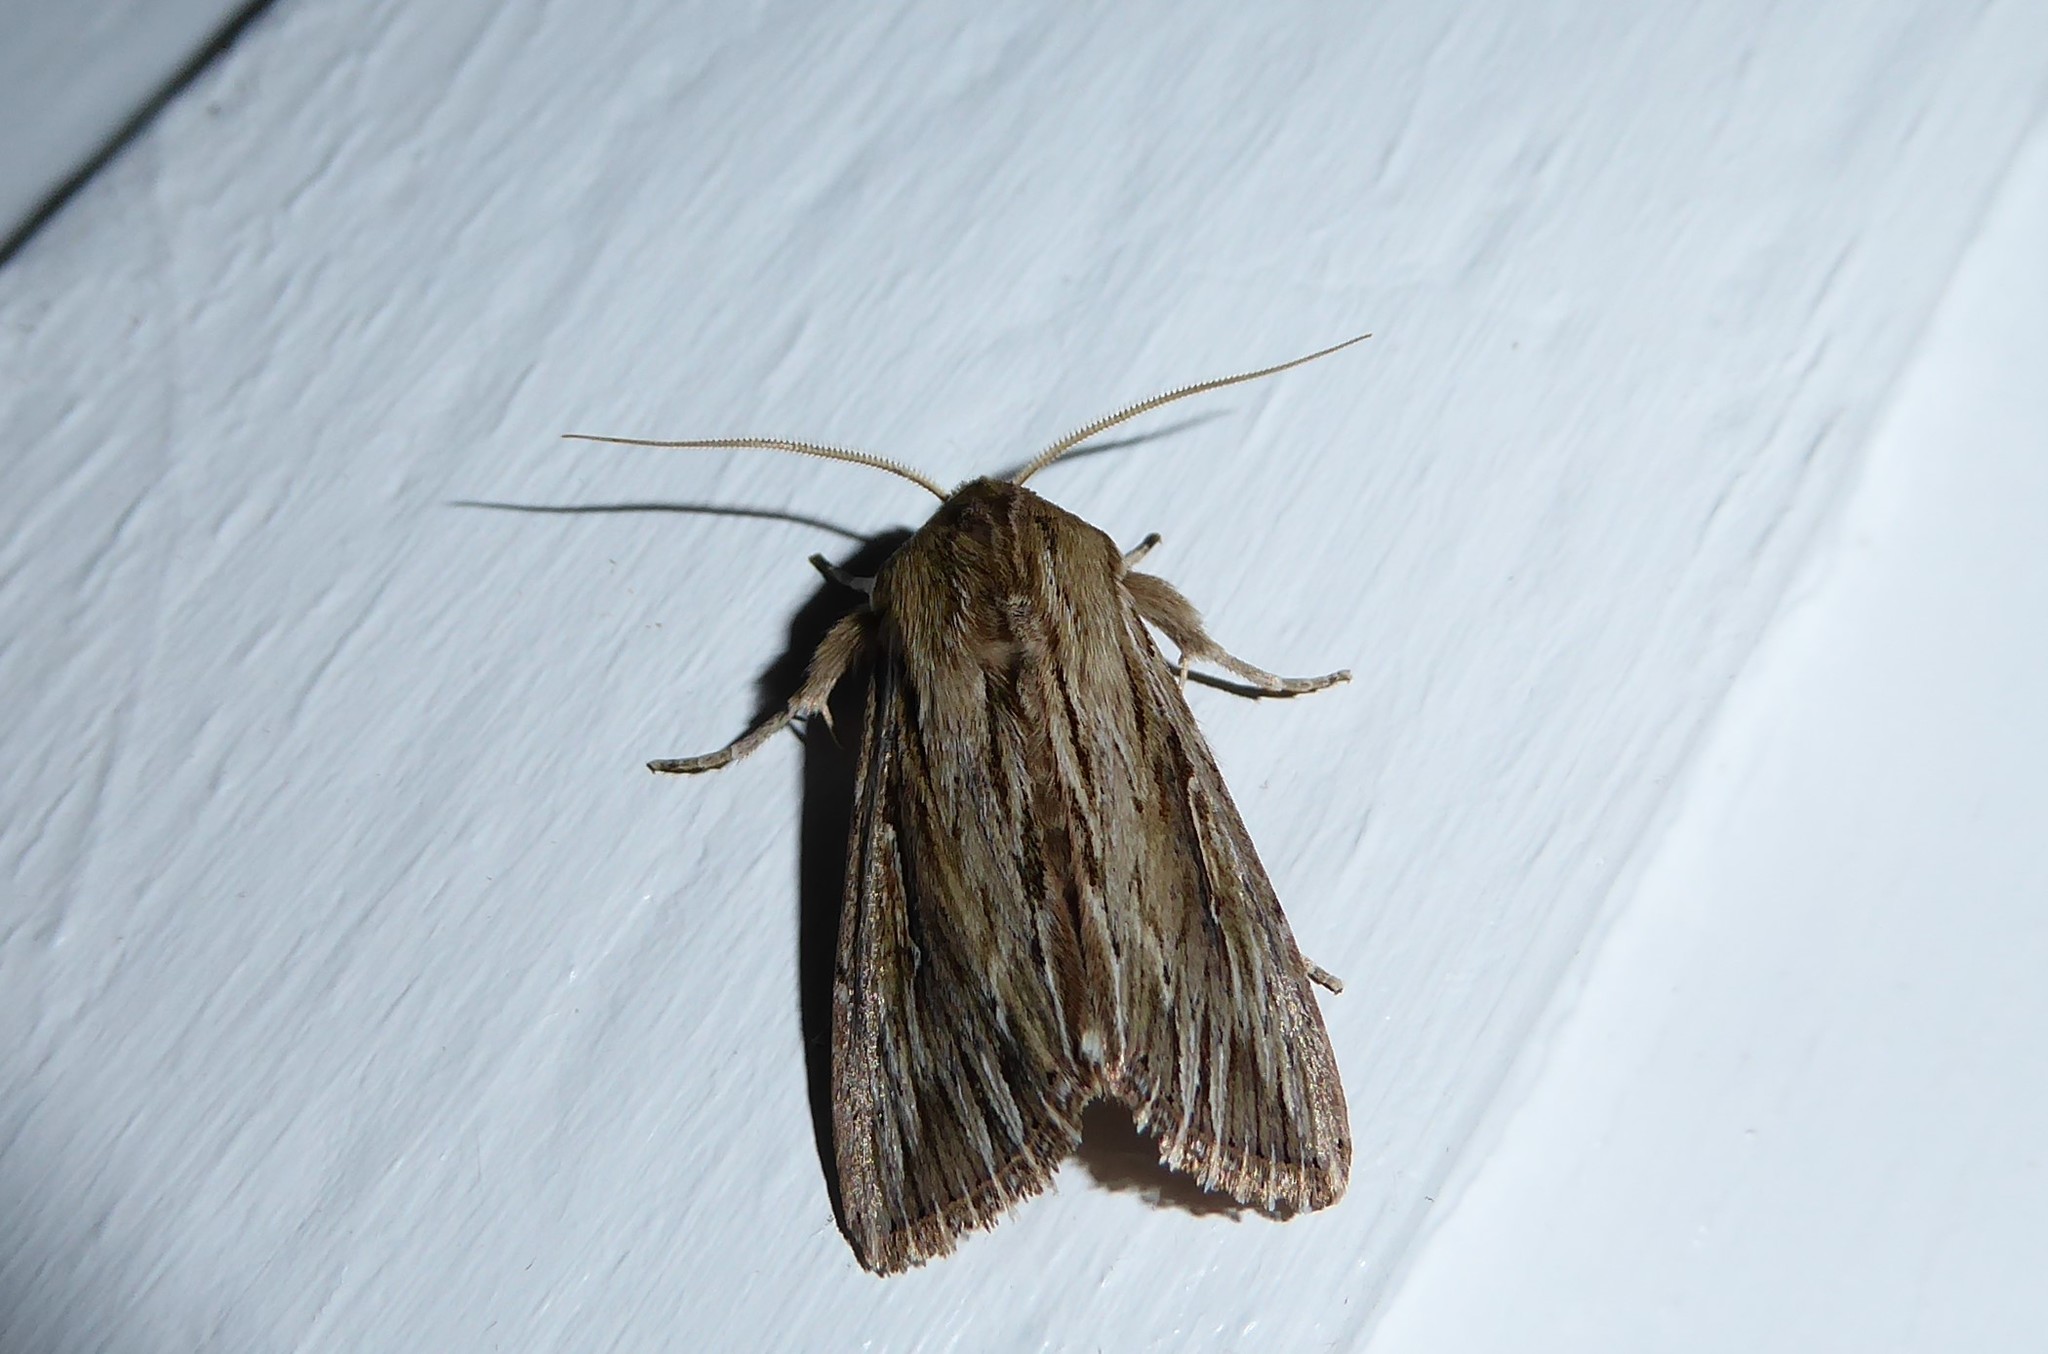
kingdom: Animalia
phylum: Arthropoda
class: Insecta
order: Lepidoptera
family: Noctuidae
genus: Persectania
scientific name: Persectania aversa
